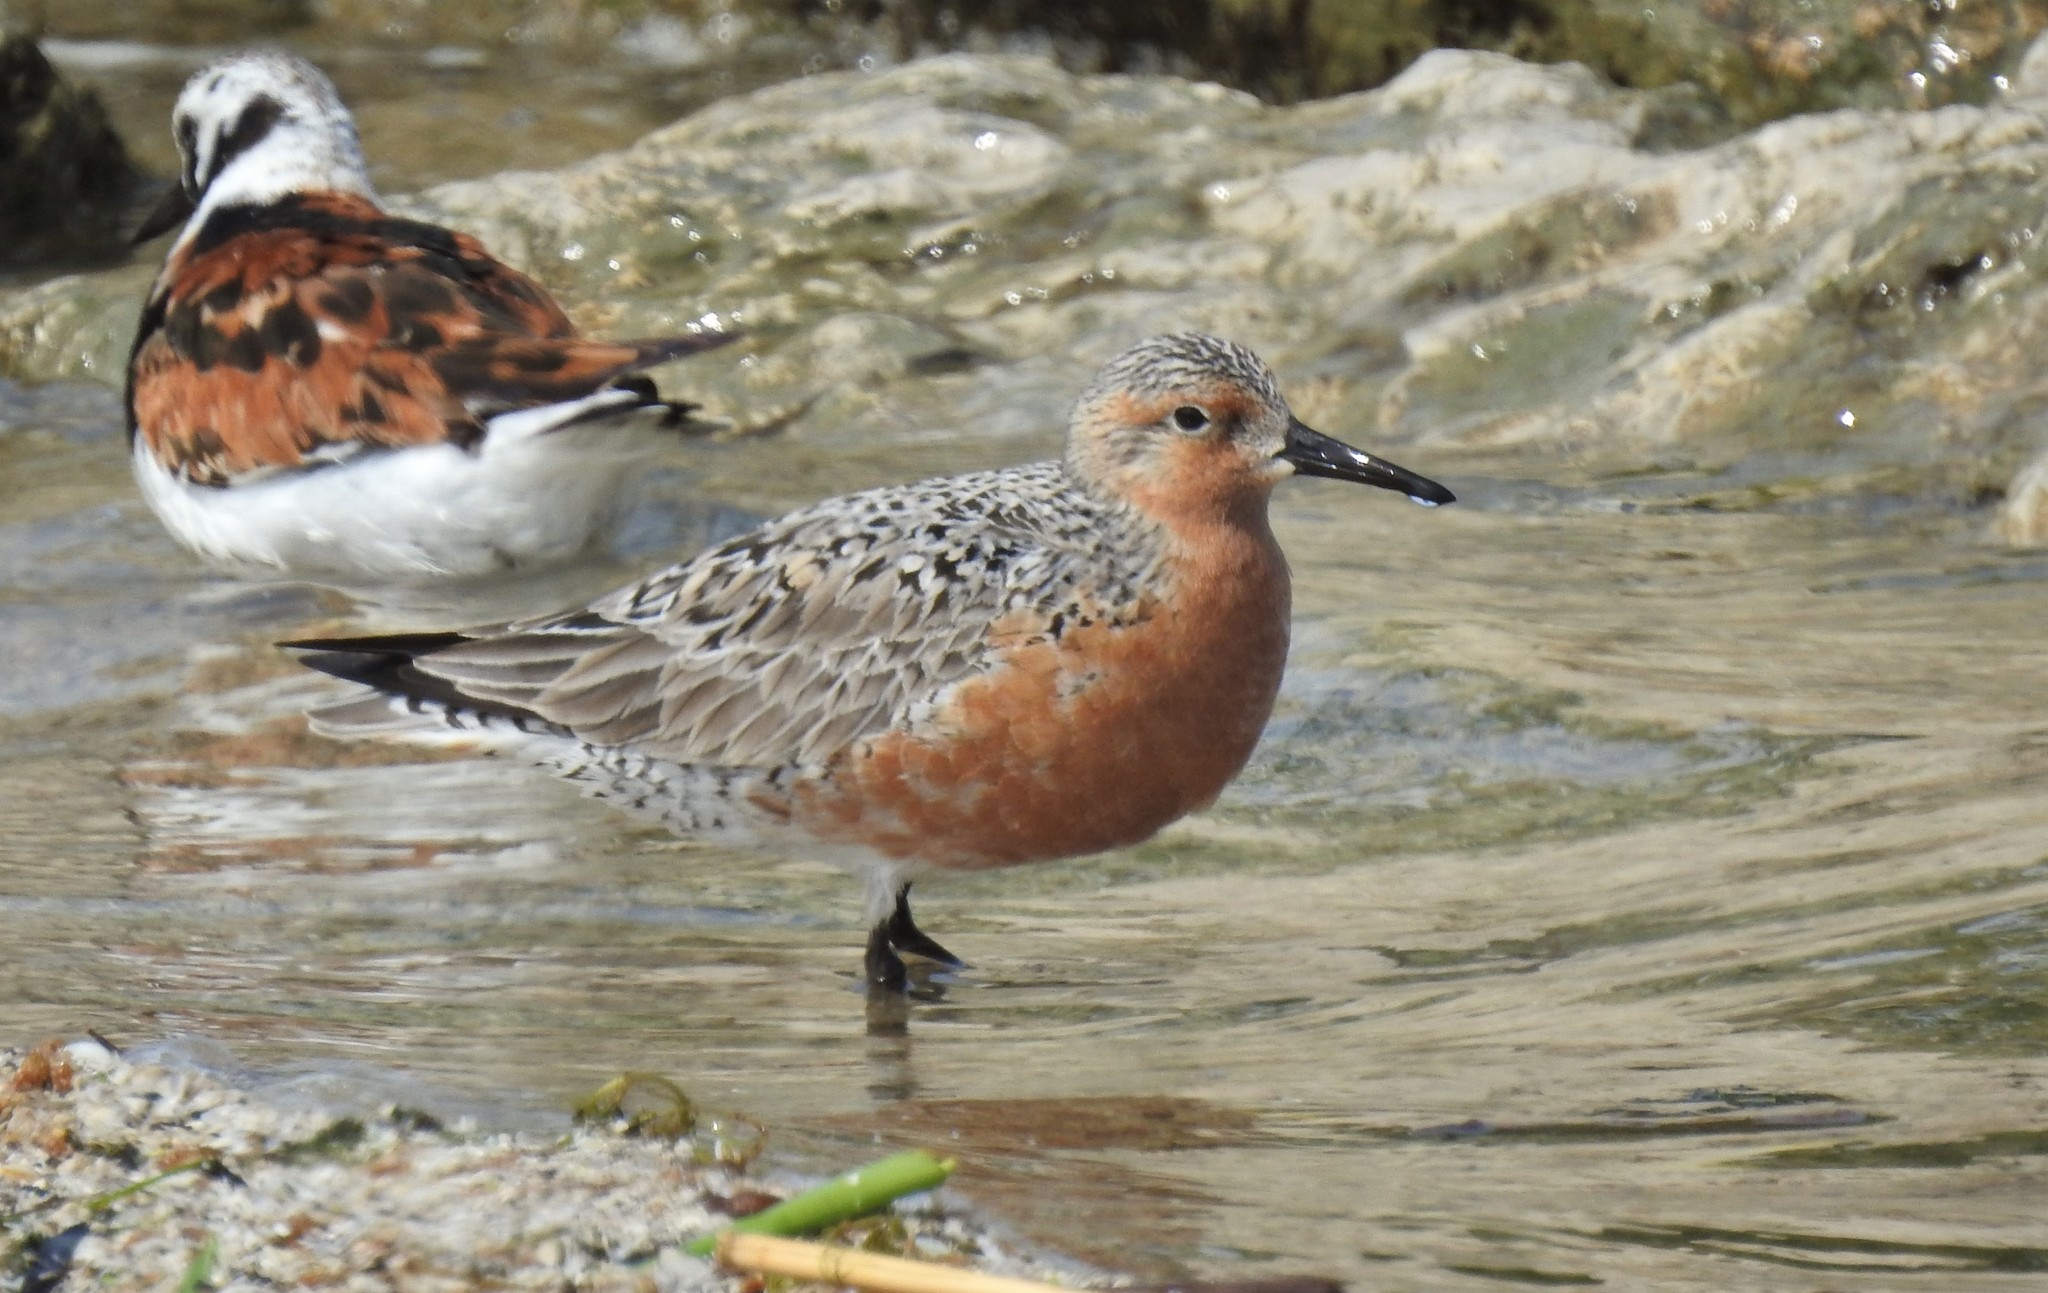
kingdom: Animalia
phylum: Chordata
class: Aves
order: Charadriiformes
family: Scolopacidae
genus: Calidris
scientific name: Calidris canutus
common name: Red knot
